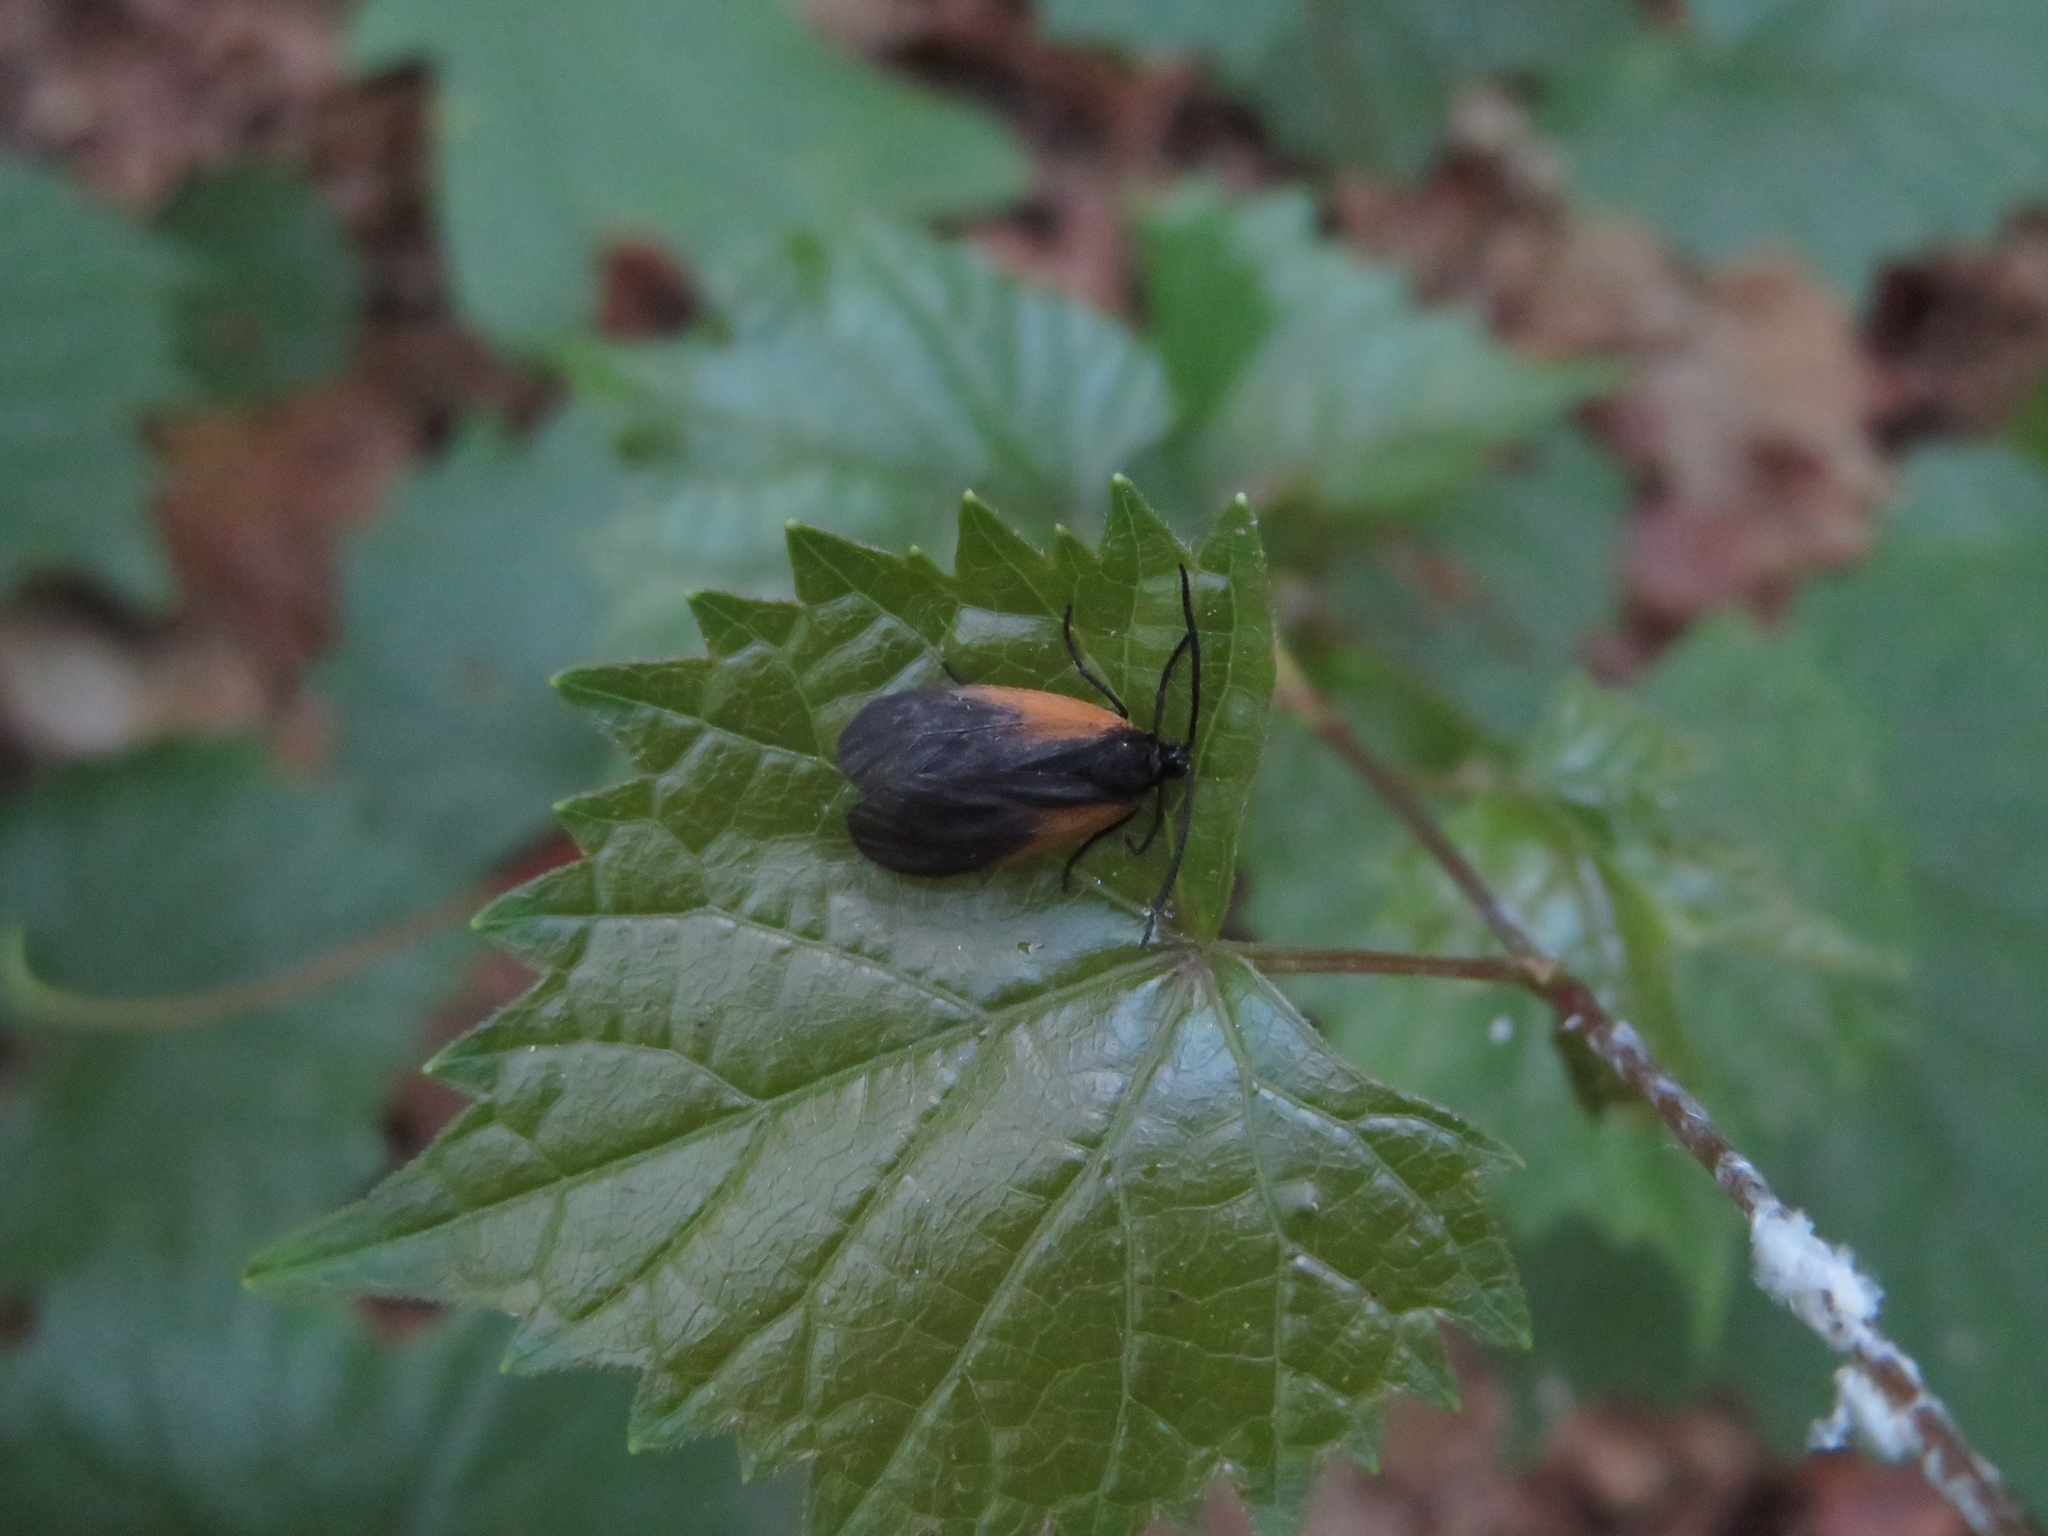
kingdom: Animalia
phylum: Arthropoda
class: Insecta
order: Lepidoptera
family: Zygaenidae
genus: Malthaca
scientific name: Malthaca dimidiata
